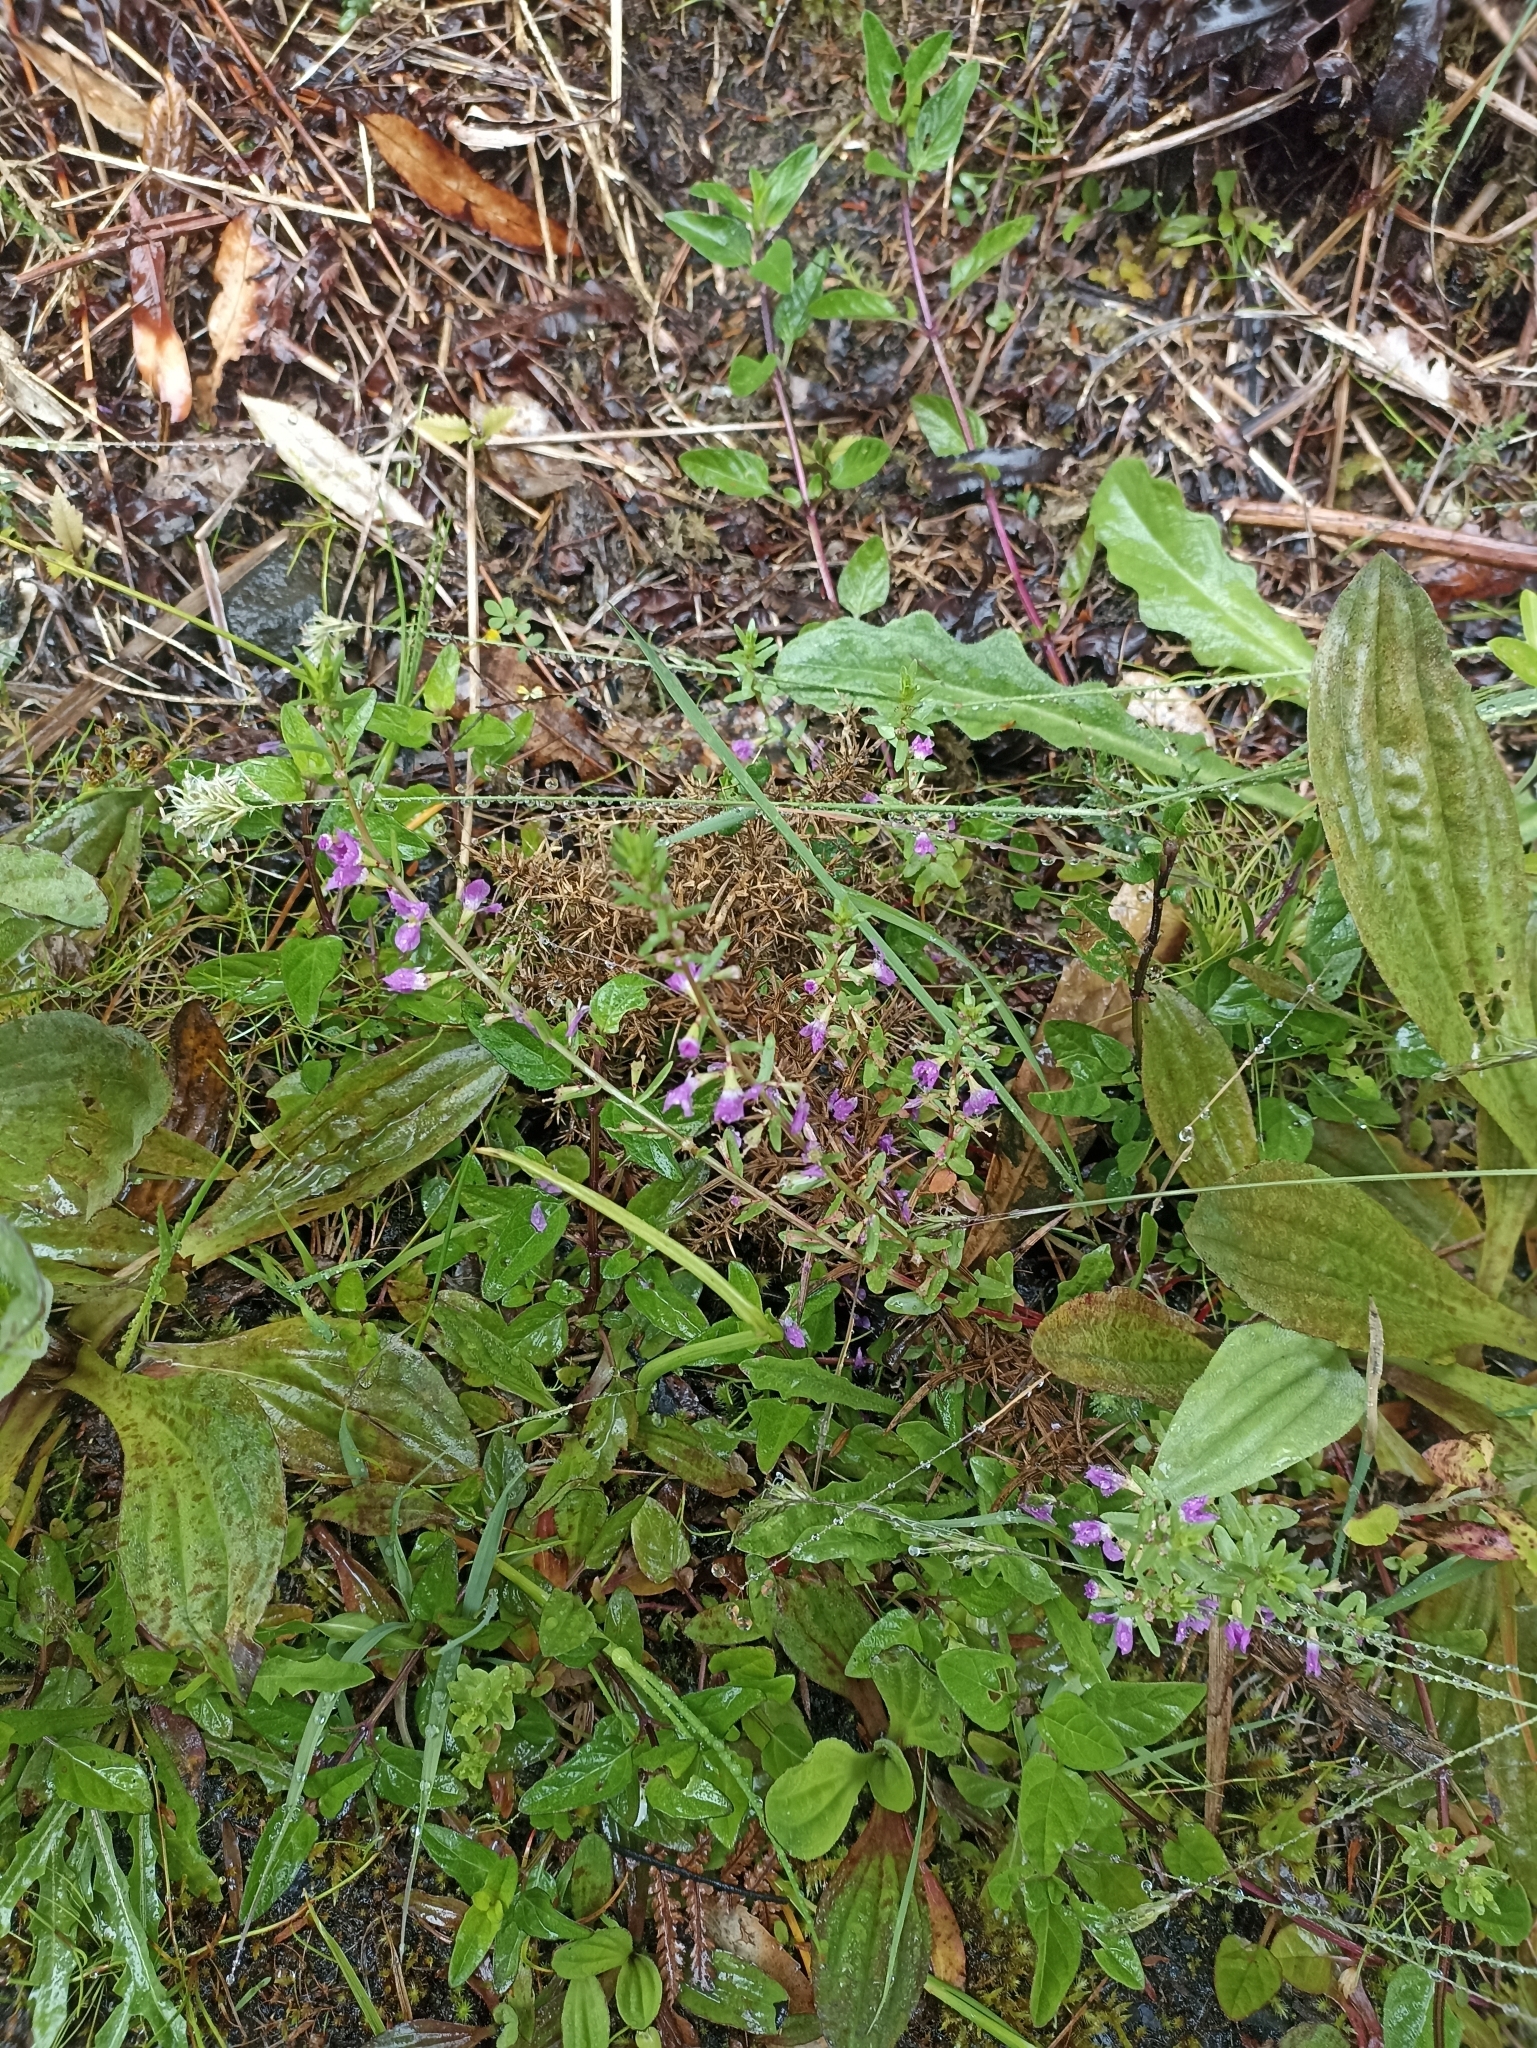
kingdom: Plantae
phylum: Tracheophyta
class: Magnoliopsida
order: Myrtales
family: Lythraceae
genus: Lythrum
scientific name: Lythrum junceum
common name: False grass-poly
